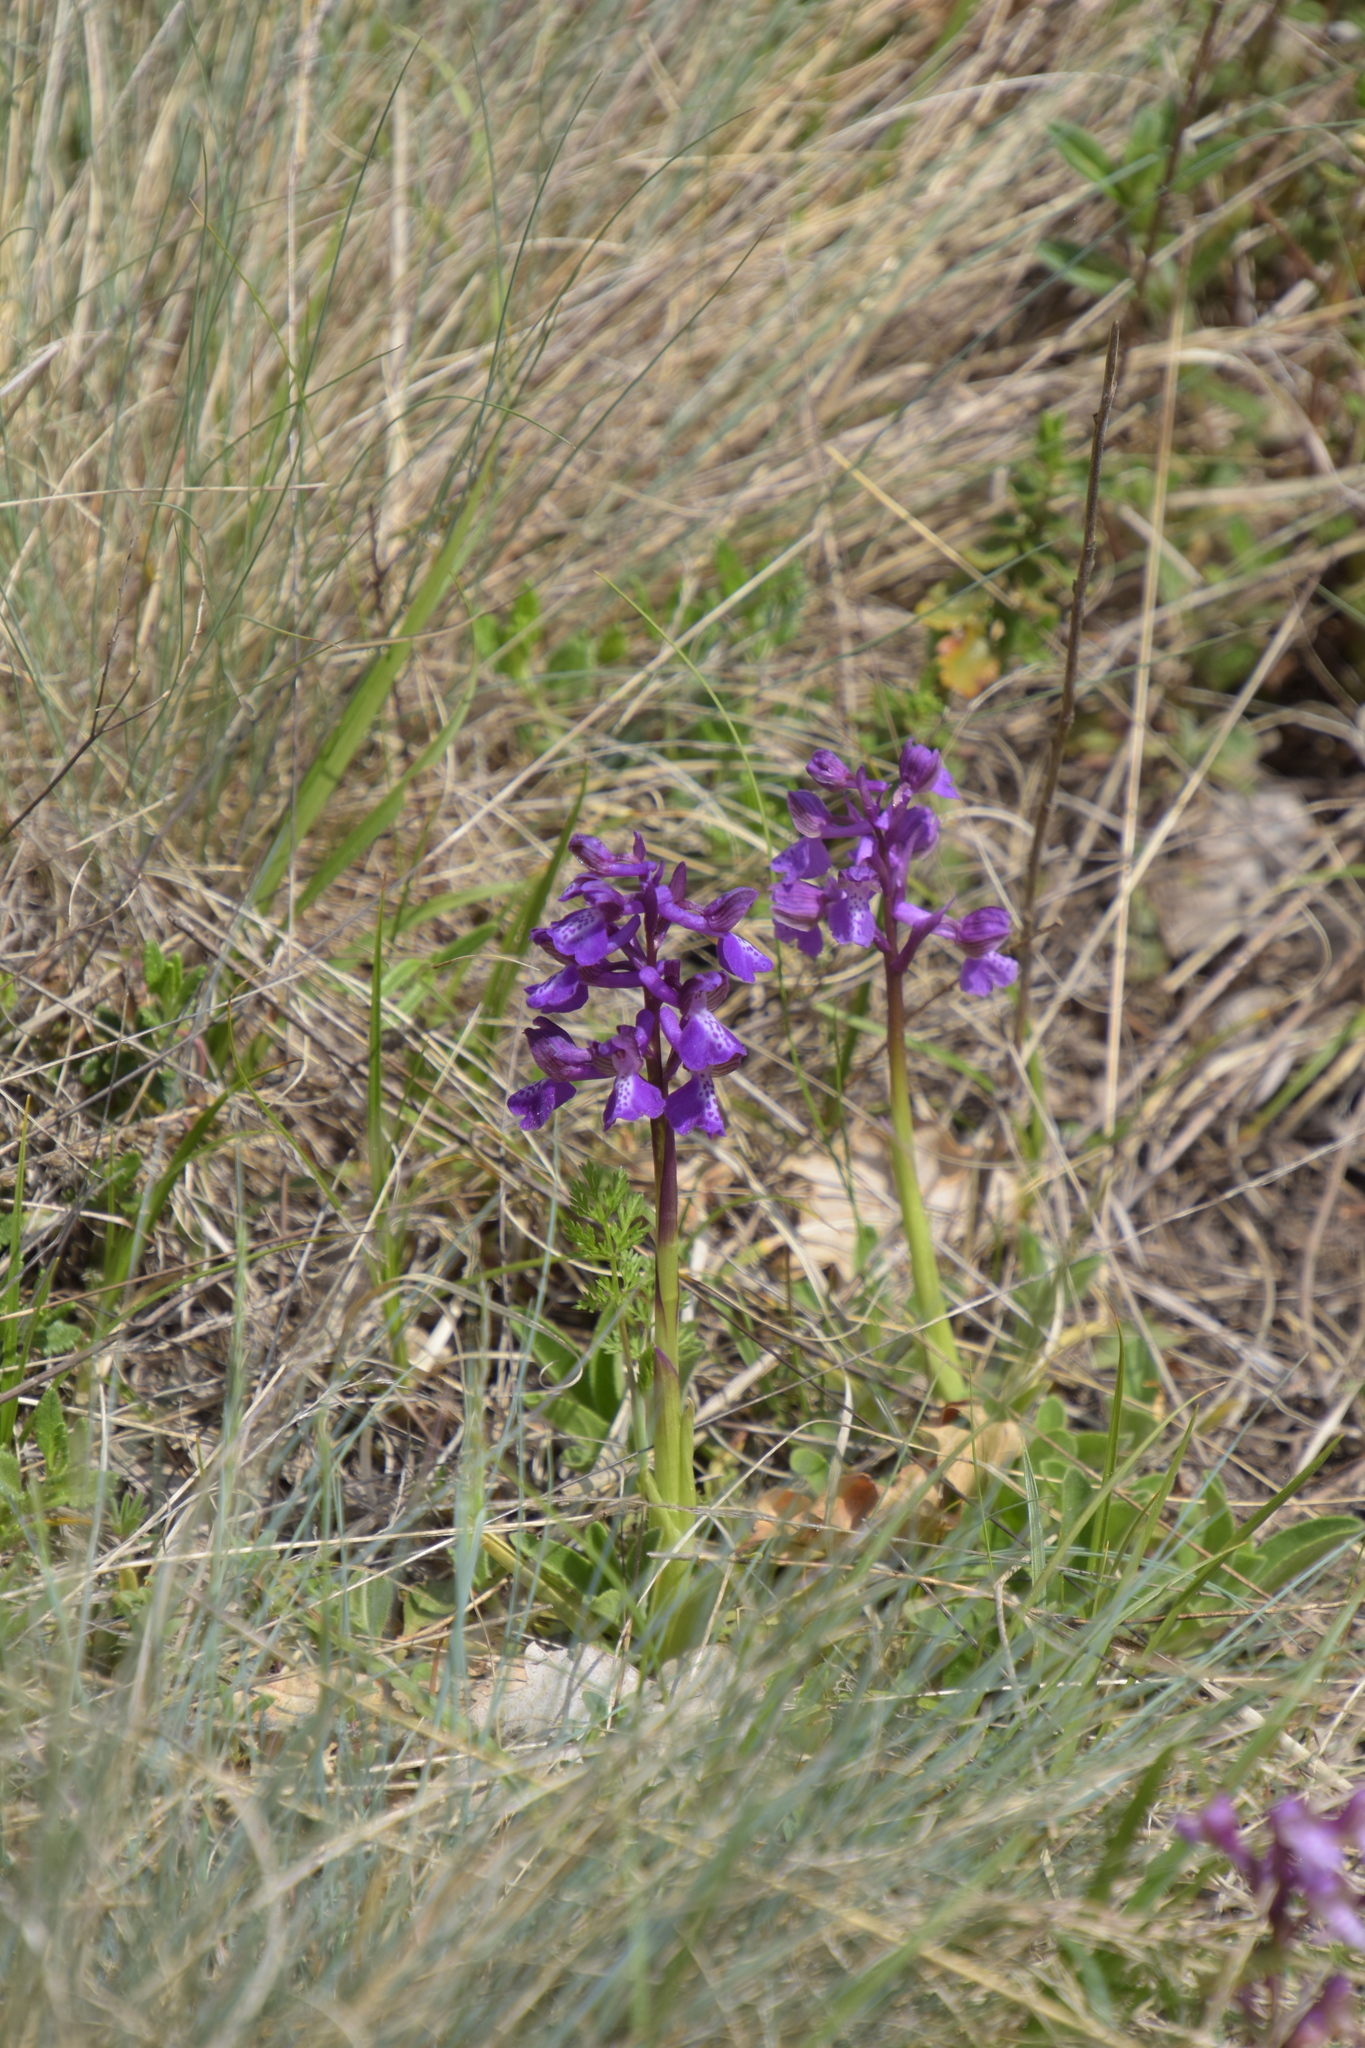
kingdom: Plantae
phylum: Tracheophyta
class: Liliopsida
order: Asparagales
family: Orchidaceae
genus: Anacamptis
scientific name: Anacamptis morio
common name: Green-winged orchid
